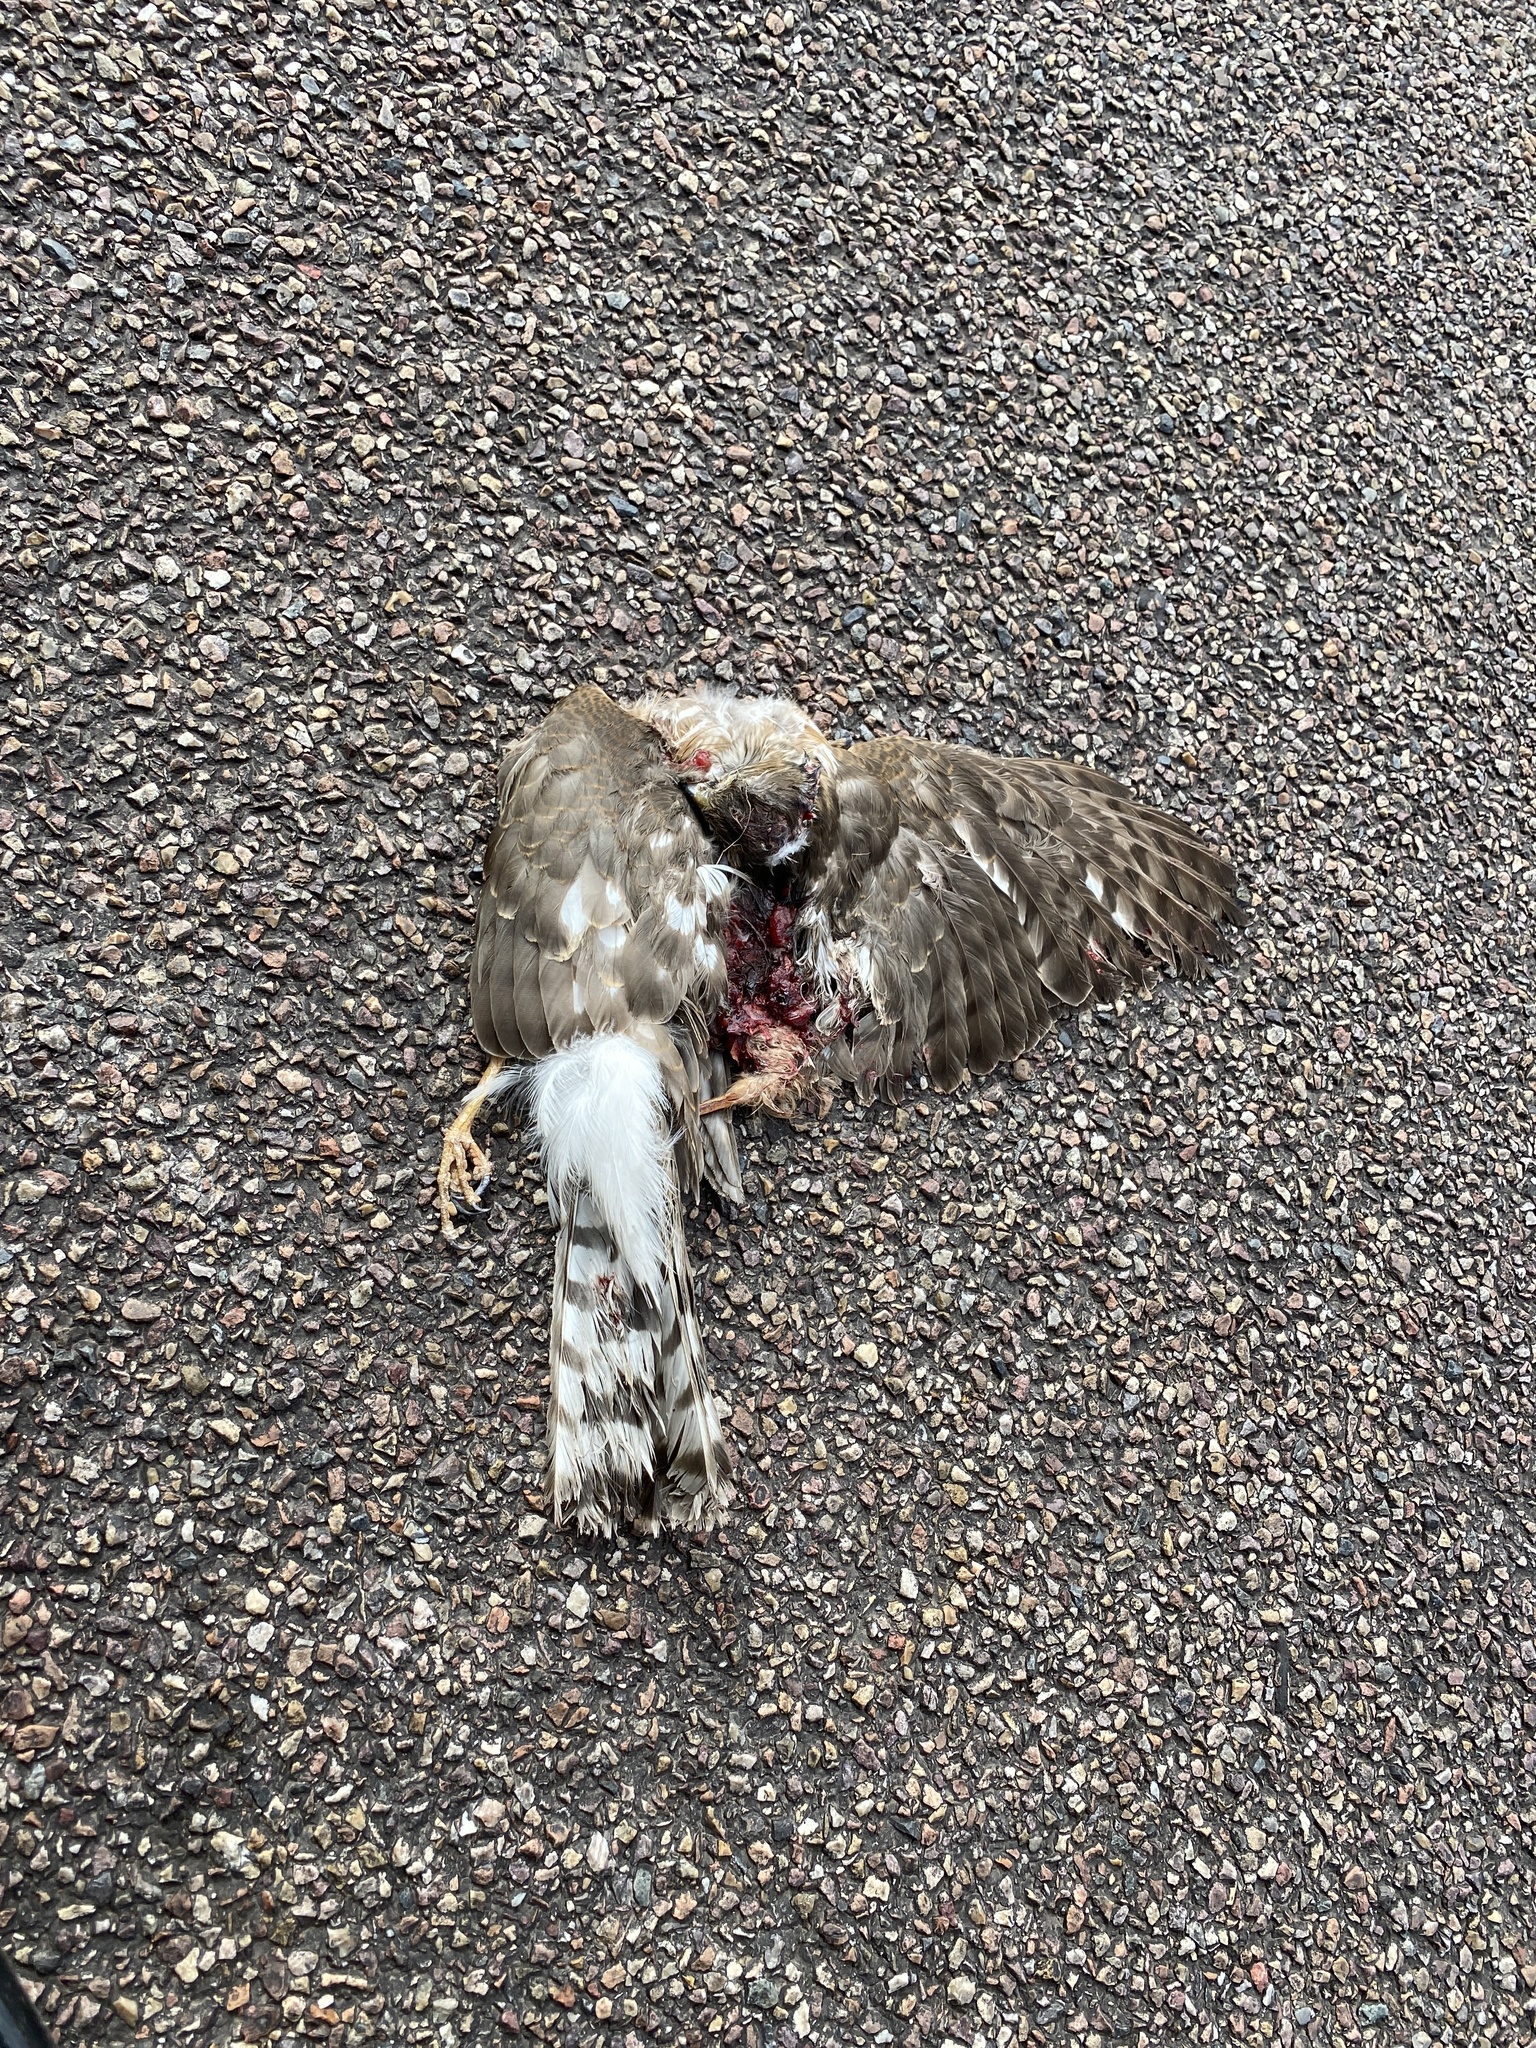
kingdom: Animalia
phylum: Chordata
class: Aves
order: Accipitriformes
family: Accipitridae
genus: Accipiter
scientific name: Accipiter striatus
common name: Sharp-shinned hawk
